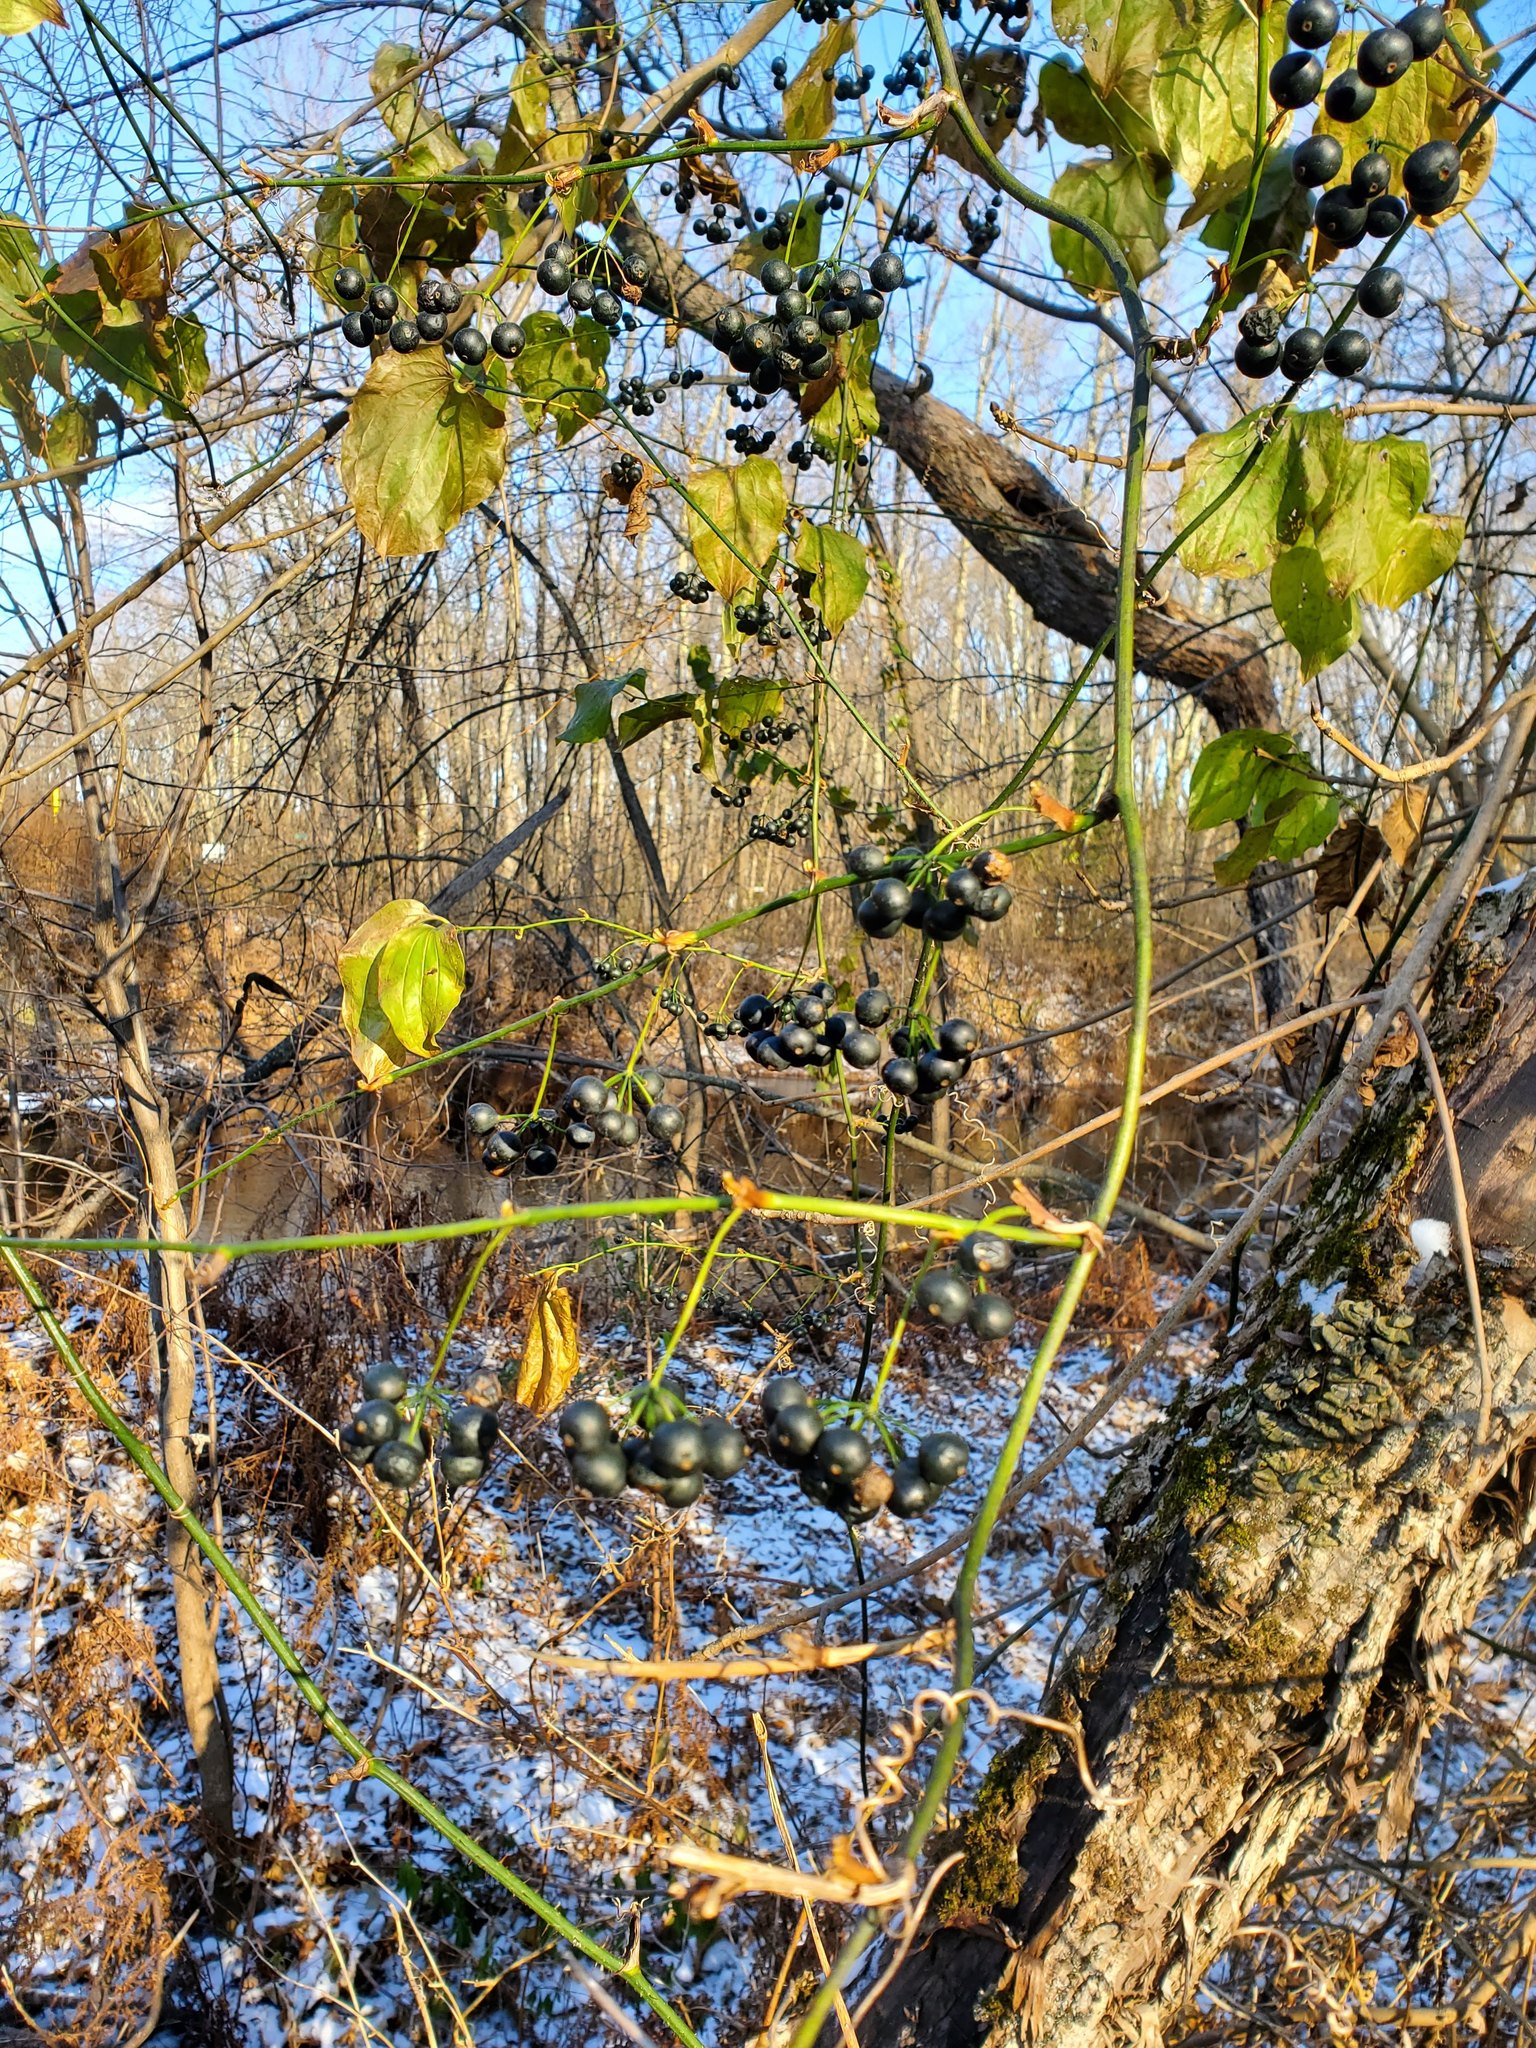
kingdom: Plantae
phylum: Tracheophyta
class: Liliopsida
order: Liliales
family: Smilacaceae
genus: Smilax
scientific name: Smilax tamnoides
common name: Hellfetter
